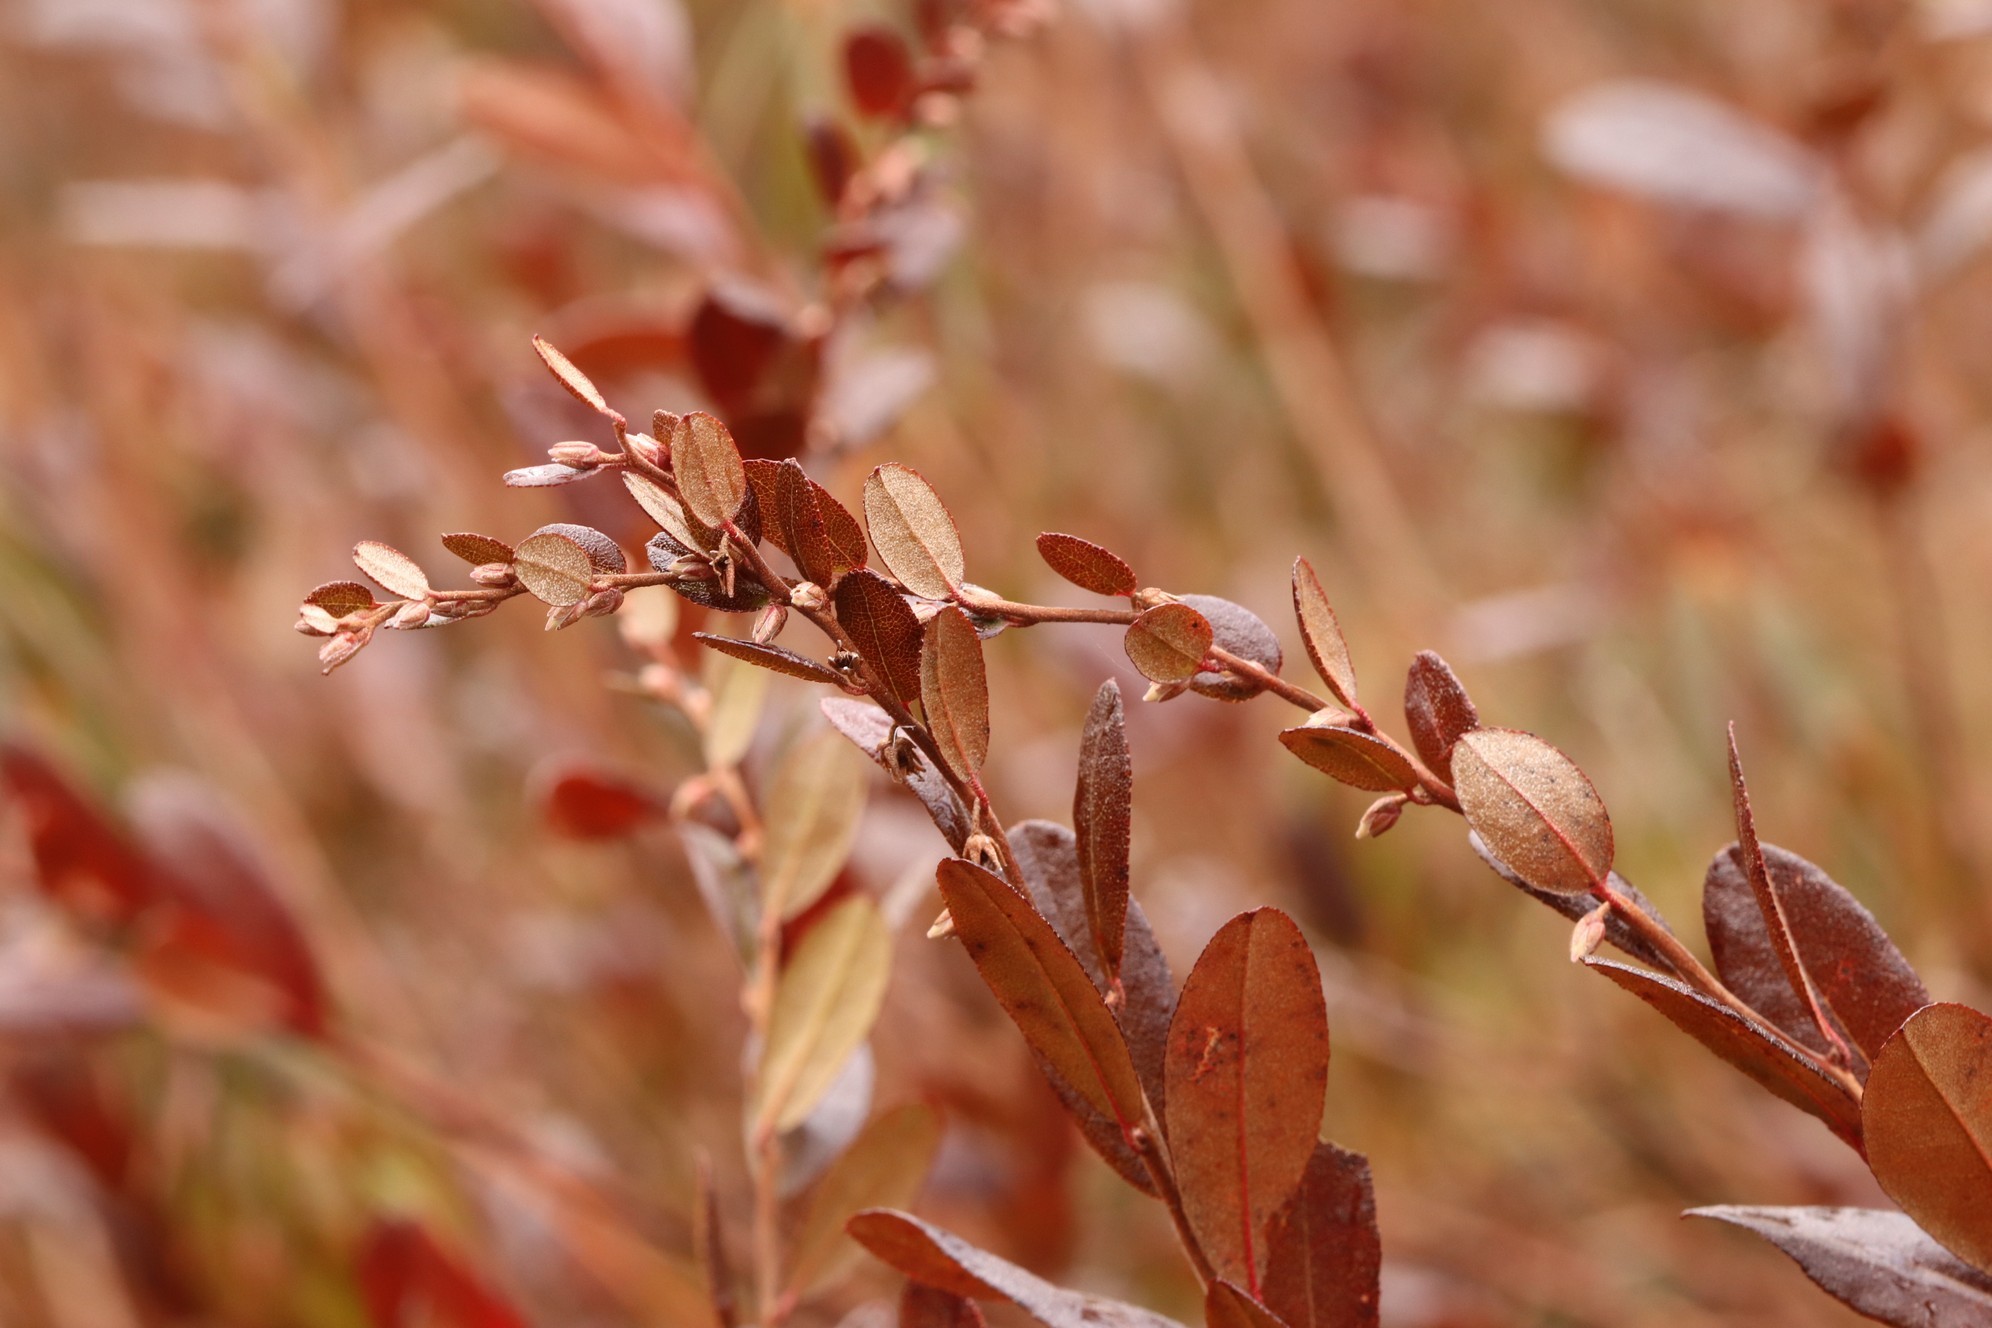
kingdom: Plantae
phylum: Tracheophyta
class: Magnoliopsida
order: Ericales
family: Ericaceae
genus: Chamaedaphne
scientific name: Chamaedaphne calyculata
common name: Leatherleaf
